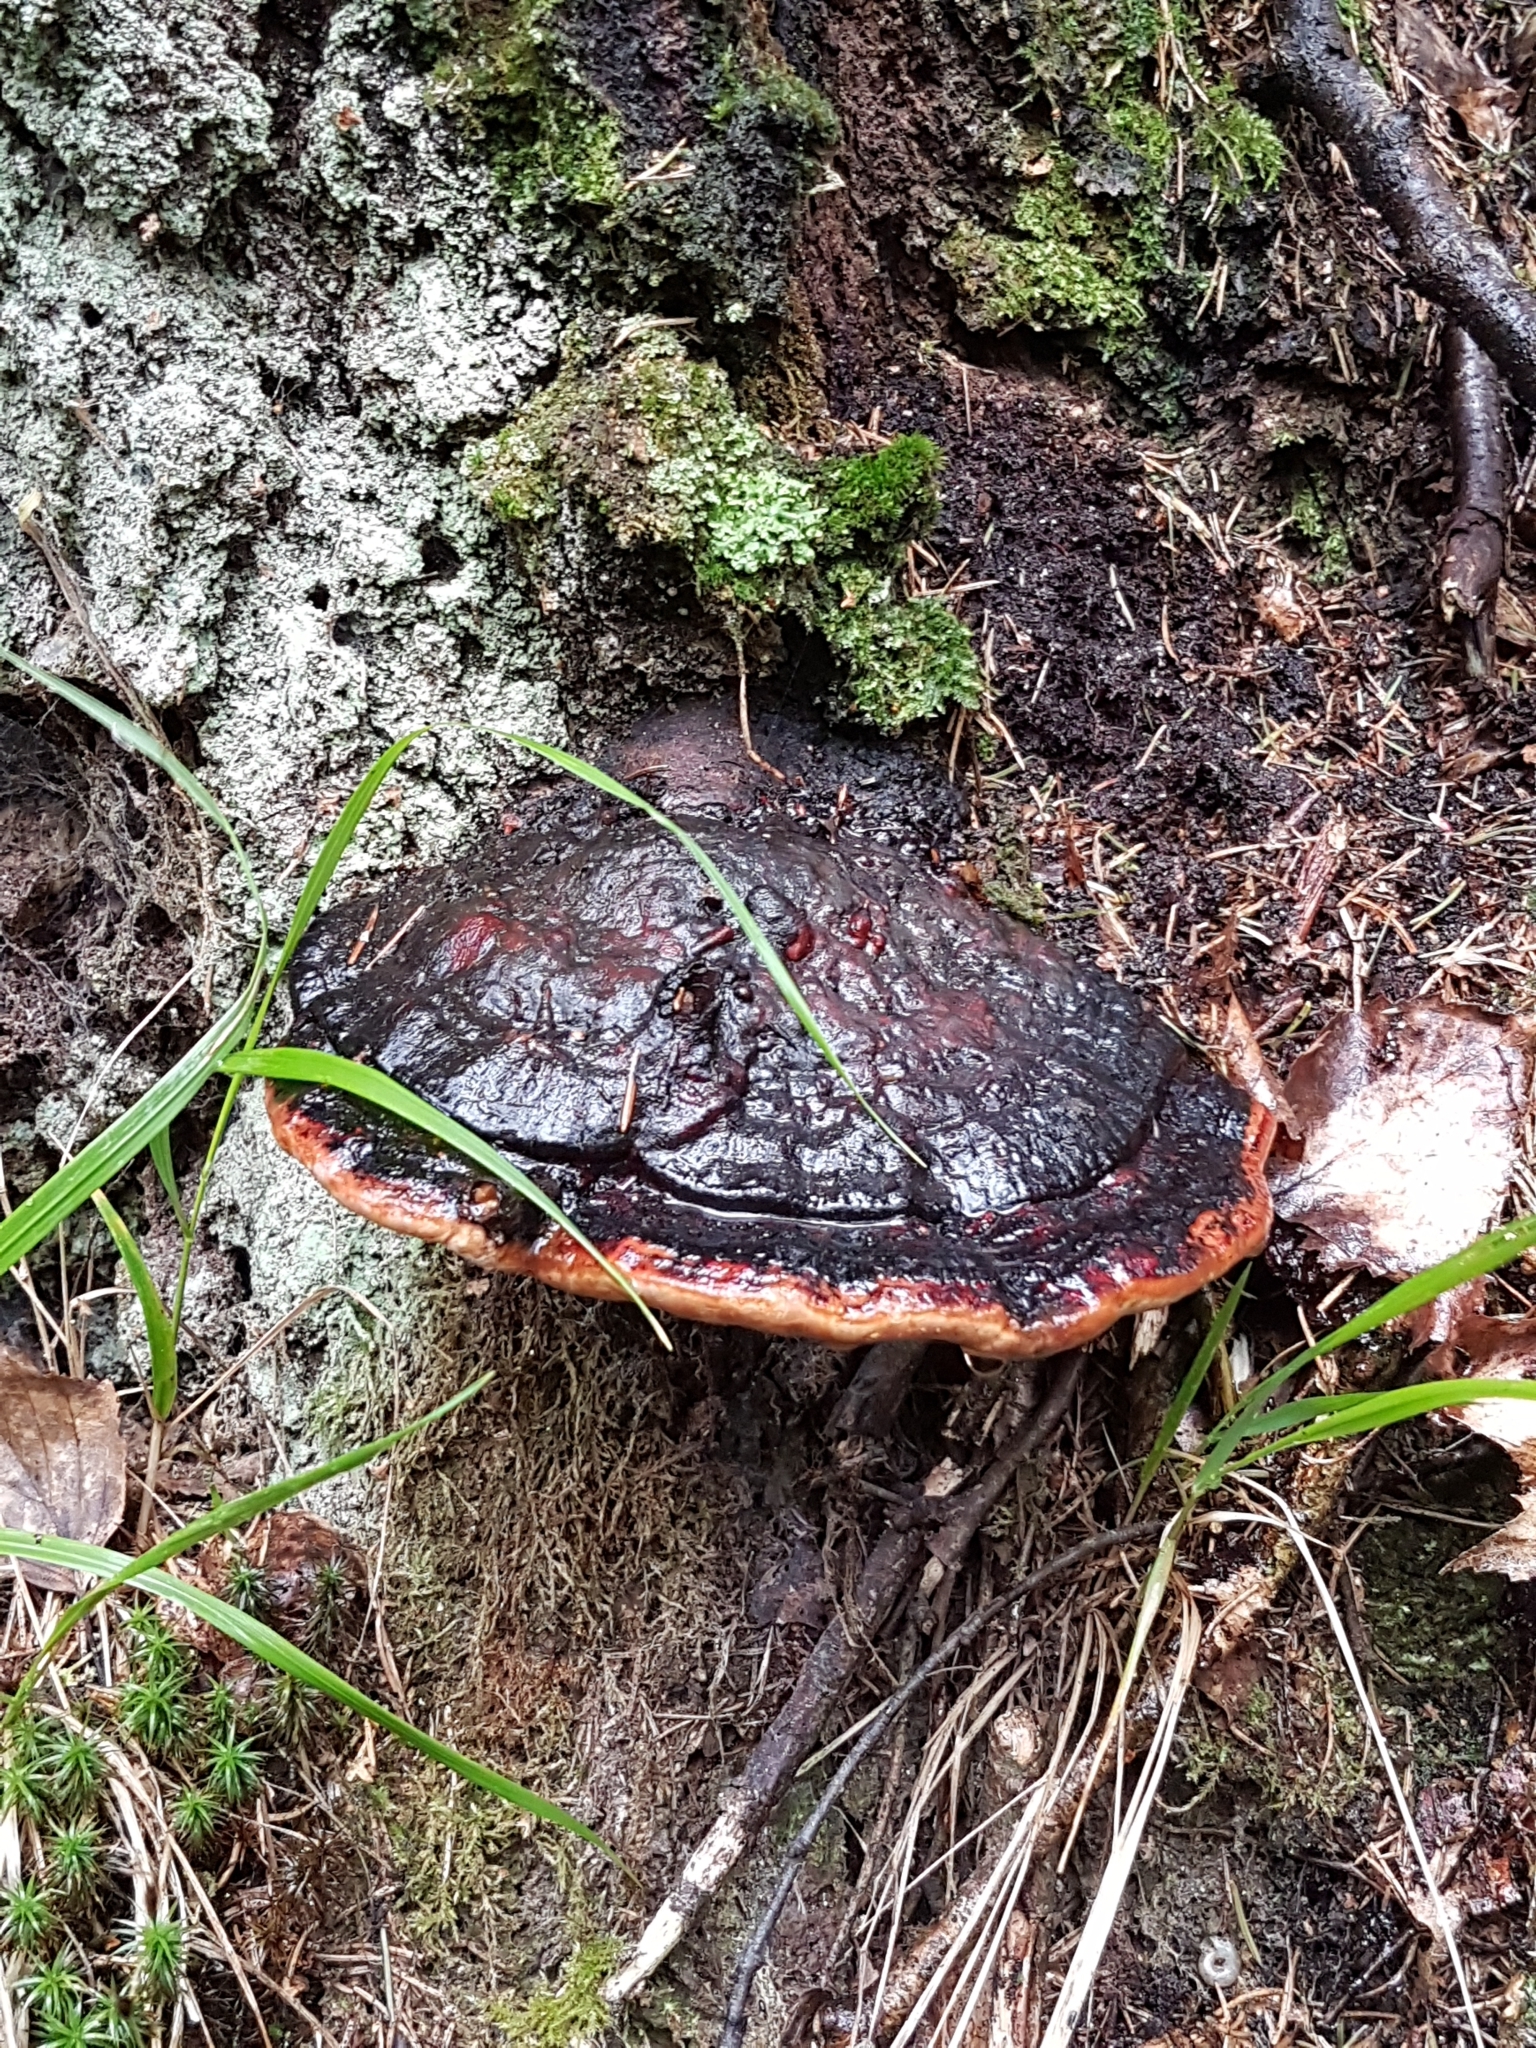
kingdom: Fungi
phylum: Basidiomycota
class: Agaricomycetes
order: Polyporales
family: Fomitopsidaceae
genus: Fomitopsis
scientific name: Fomitopsis pinicola
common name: Red-belted bracket
